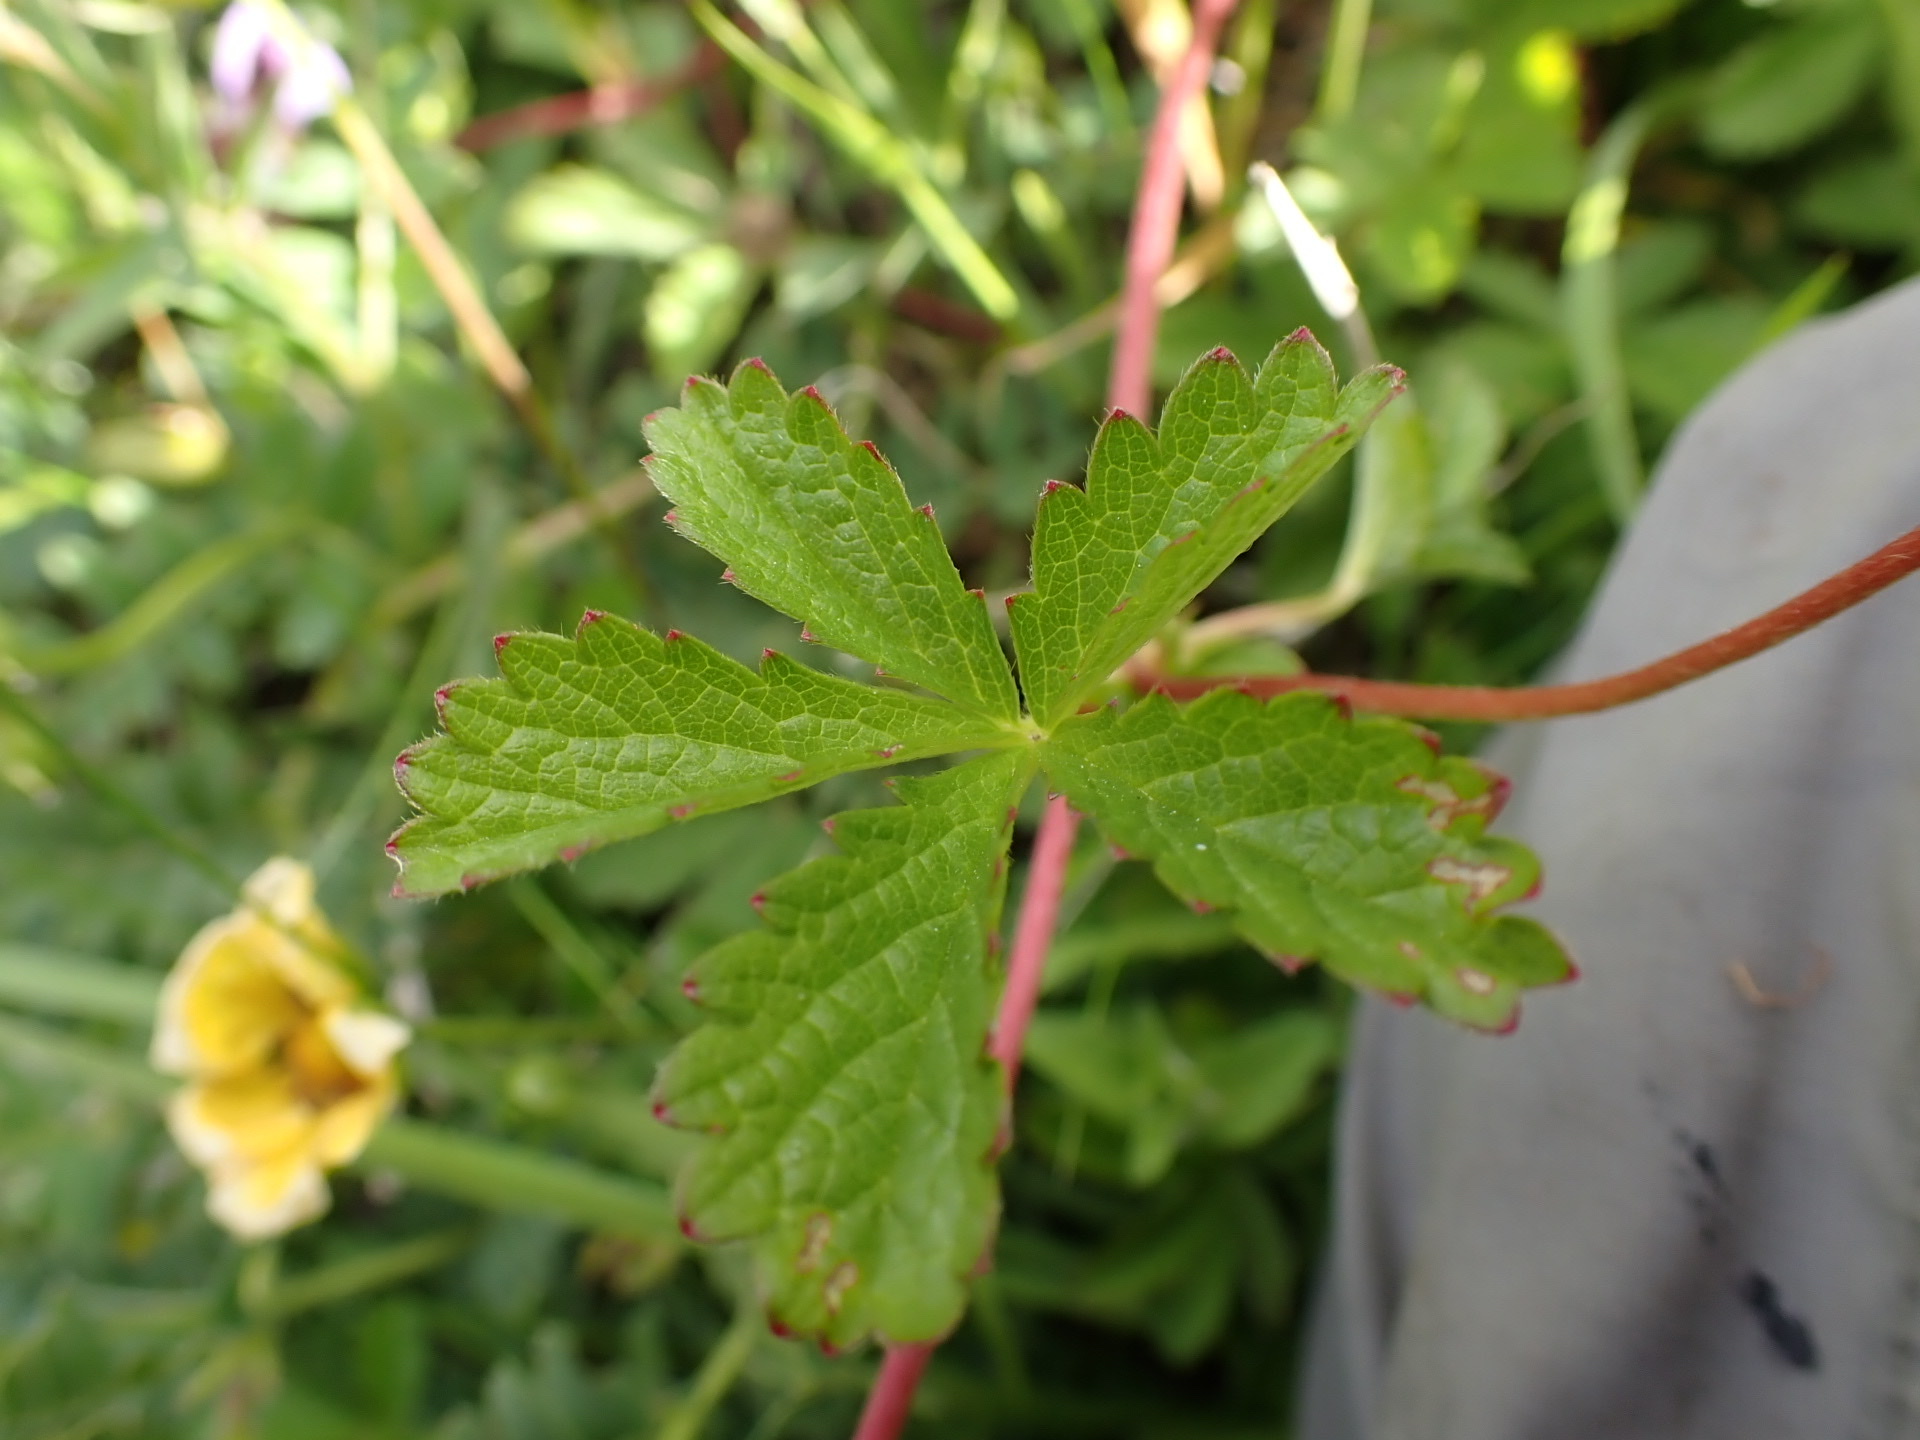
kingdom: Plantae
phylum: Tracheophyta
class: Magnoliopsida
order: Rosales
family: Rosaceae
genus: Potentilla
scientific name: Potentilla reptans
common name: Creeping cinquefoil
